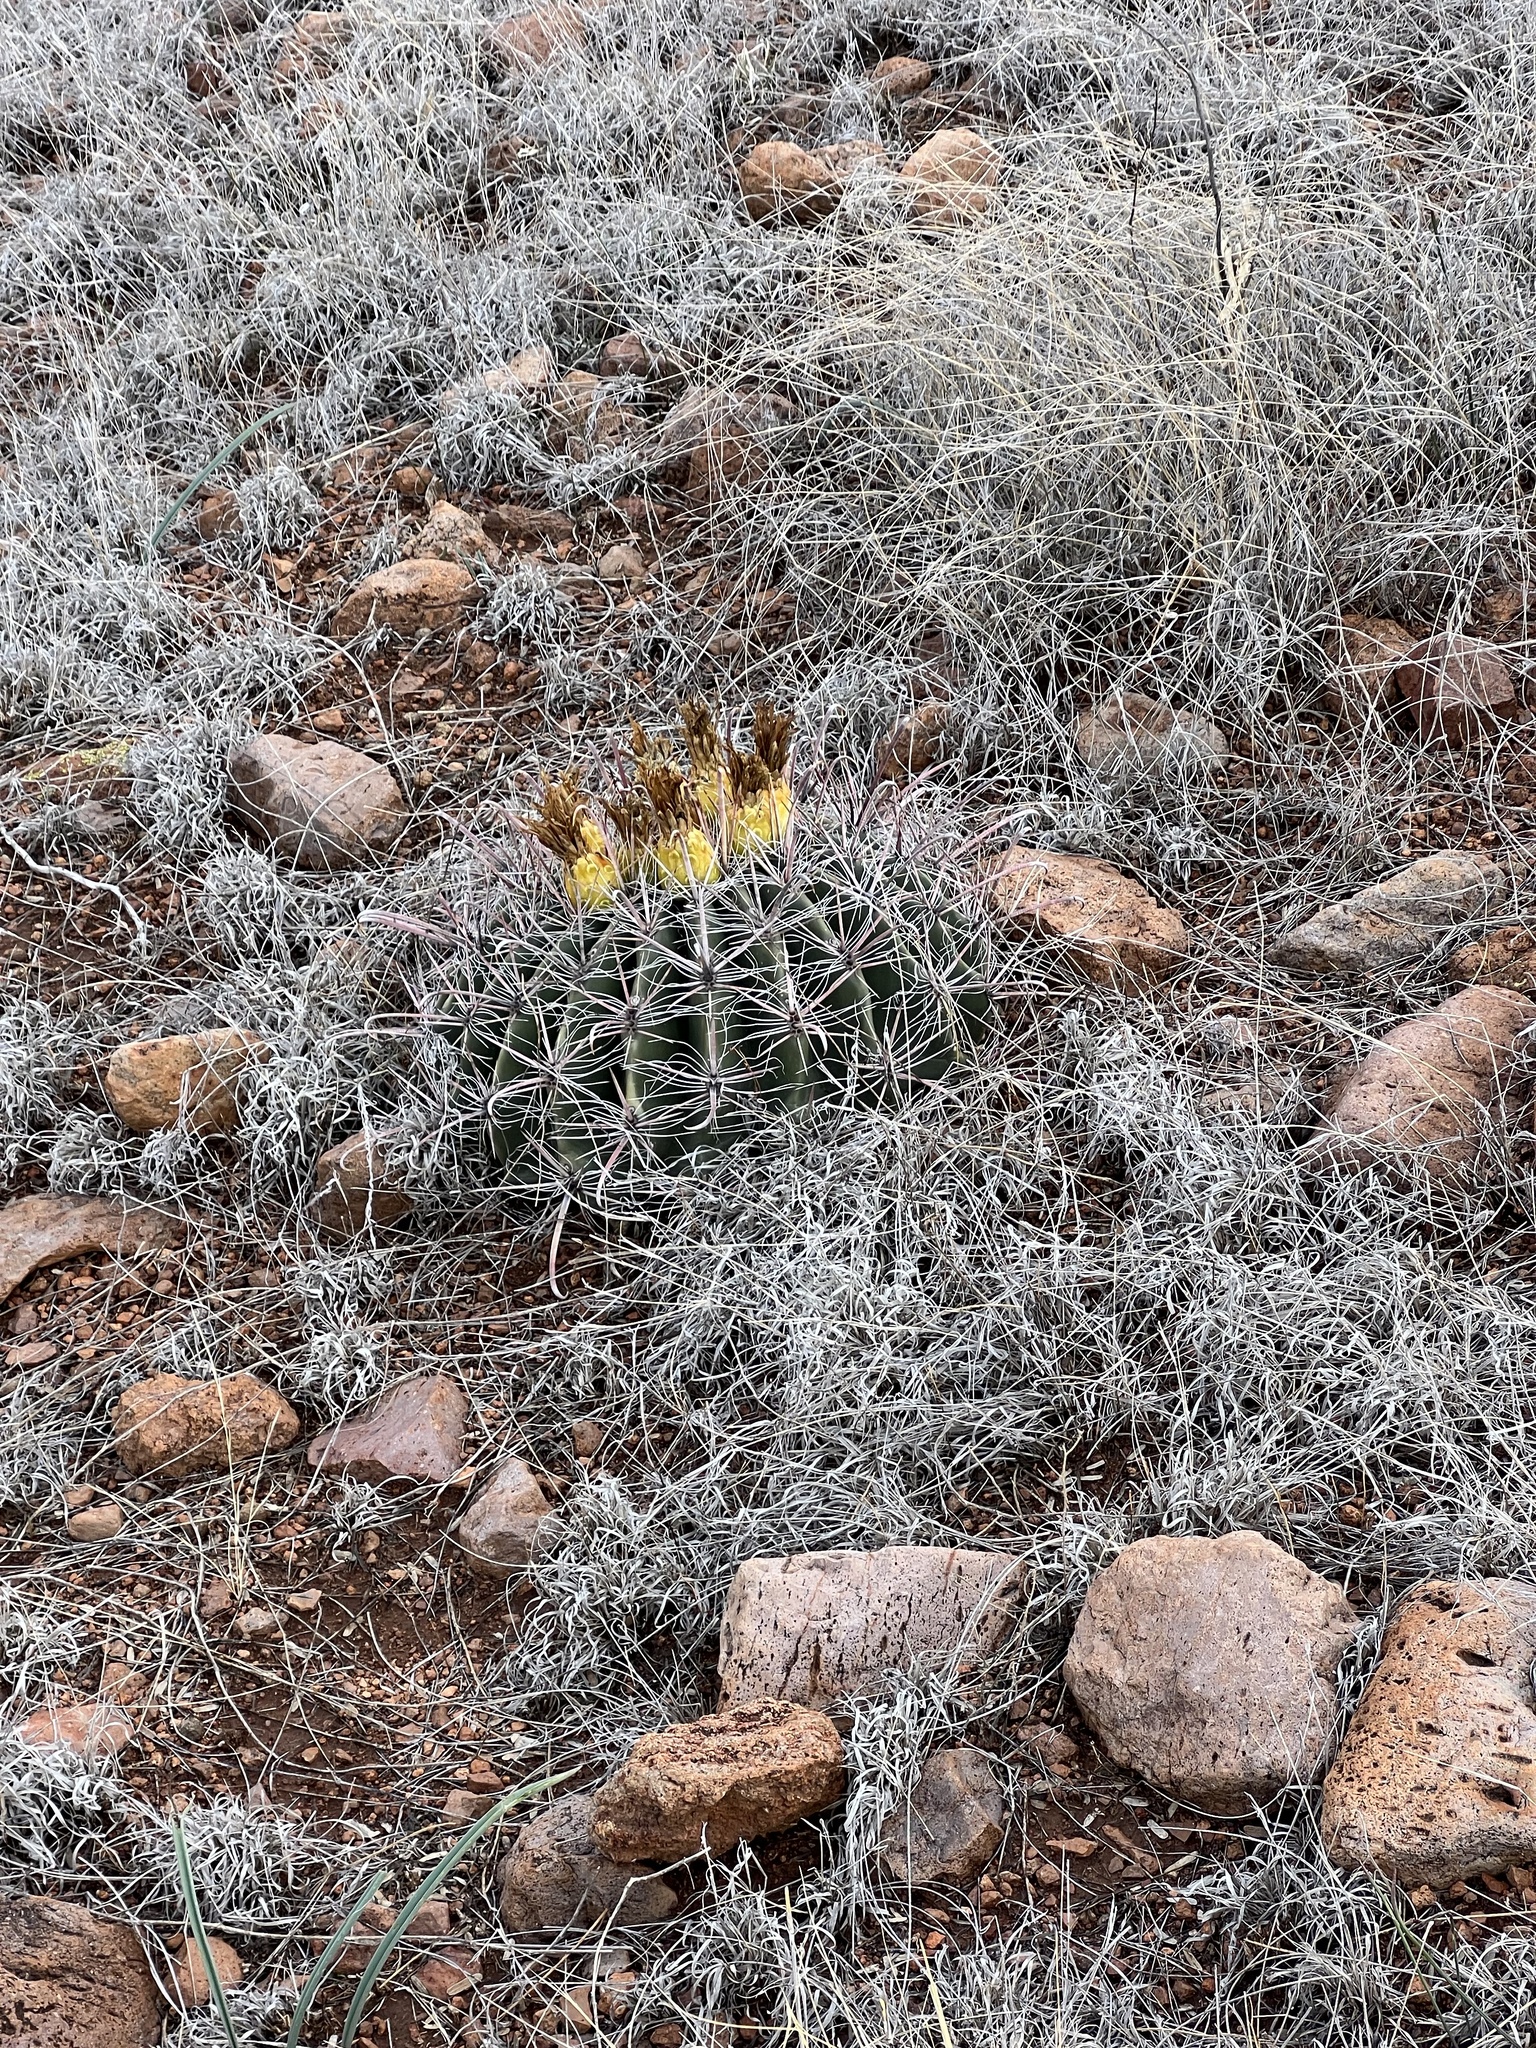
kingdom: Plantae
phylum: Tracheophyta
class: Magnoliopsida
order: Caryophyllales
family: Cactaceae
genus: Ferocactus
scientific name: Ferocactus wislizeni
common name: Candy barrel cactus
